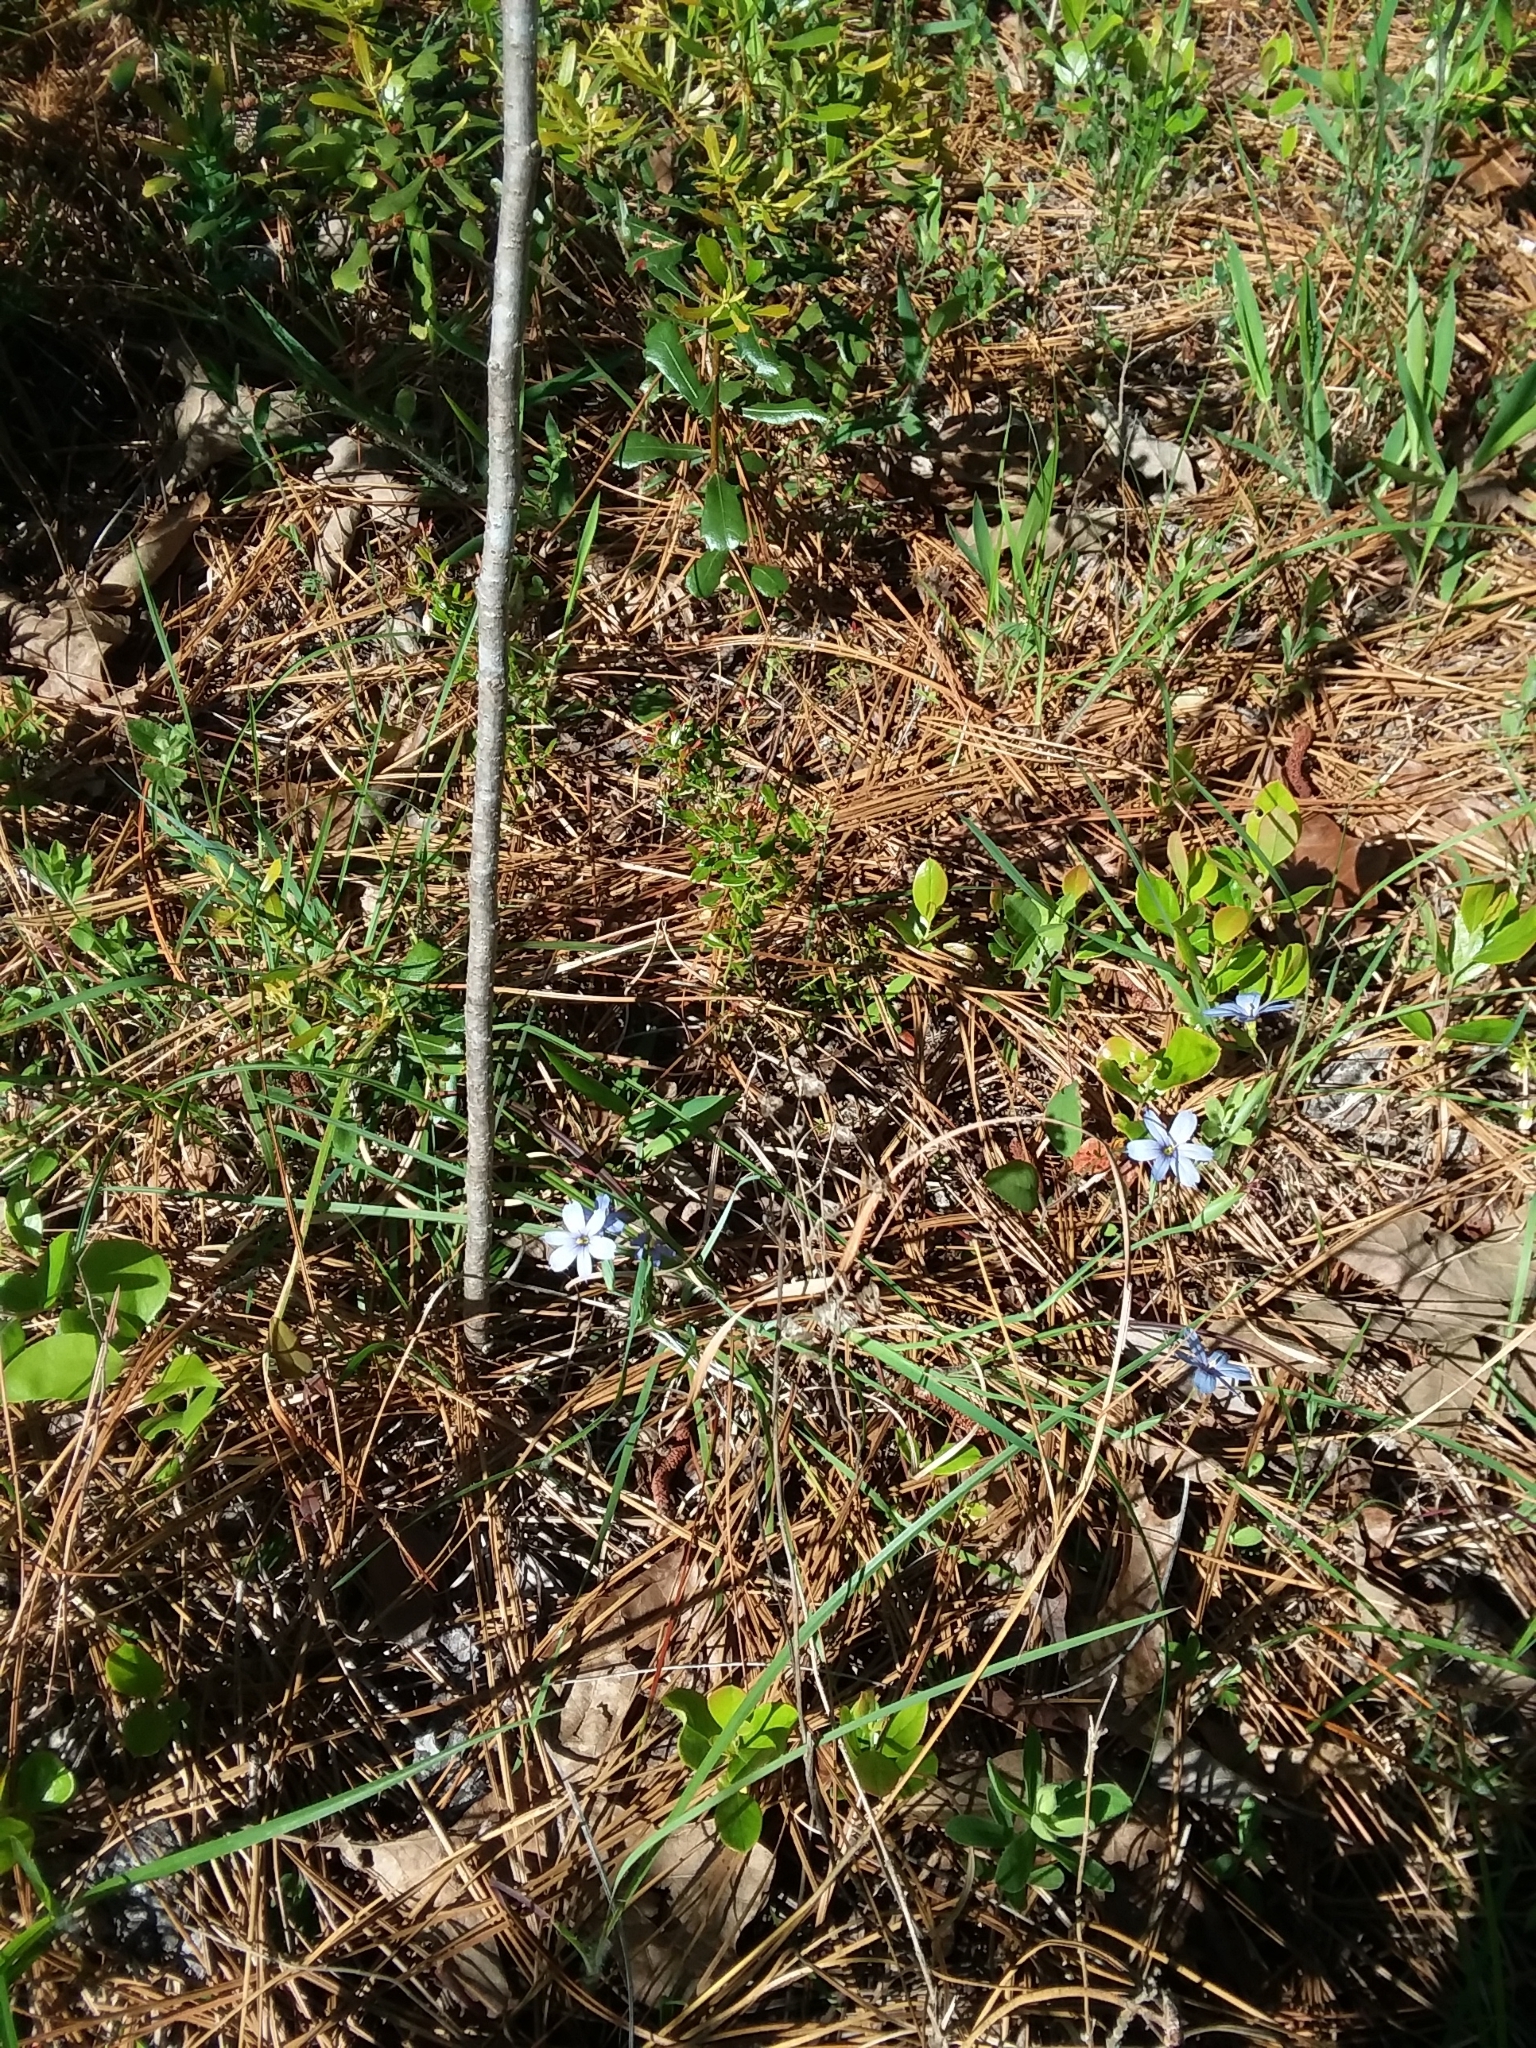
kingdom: Plantae
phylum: Tracheophyta
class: Liliopsida
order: Asparagales
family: Iridaceae
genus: Sisyrinchium
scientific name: Sisyrinchium nashii
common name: Nash's blue-eyed-grass
